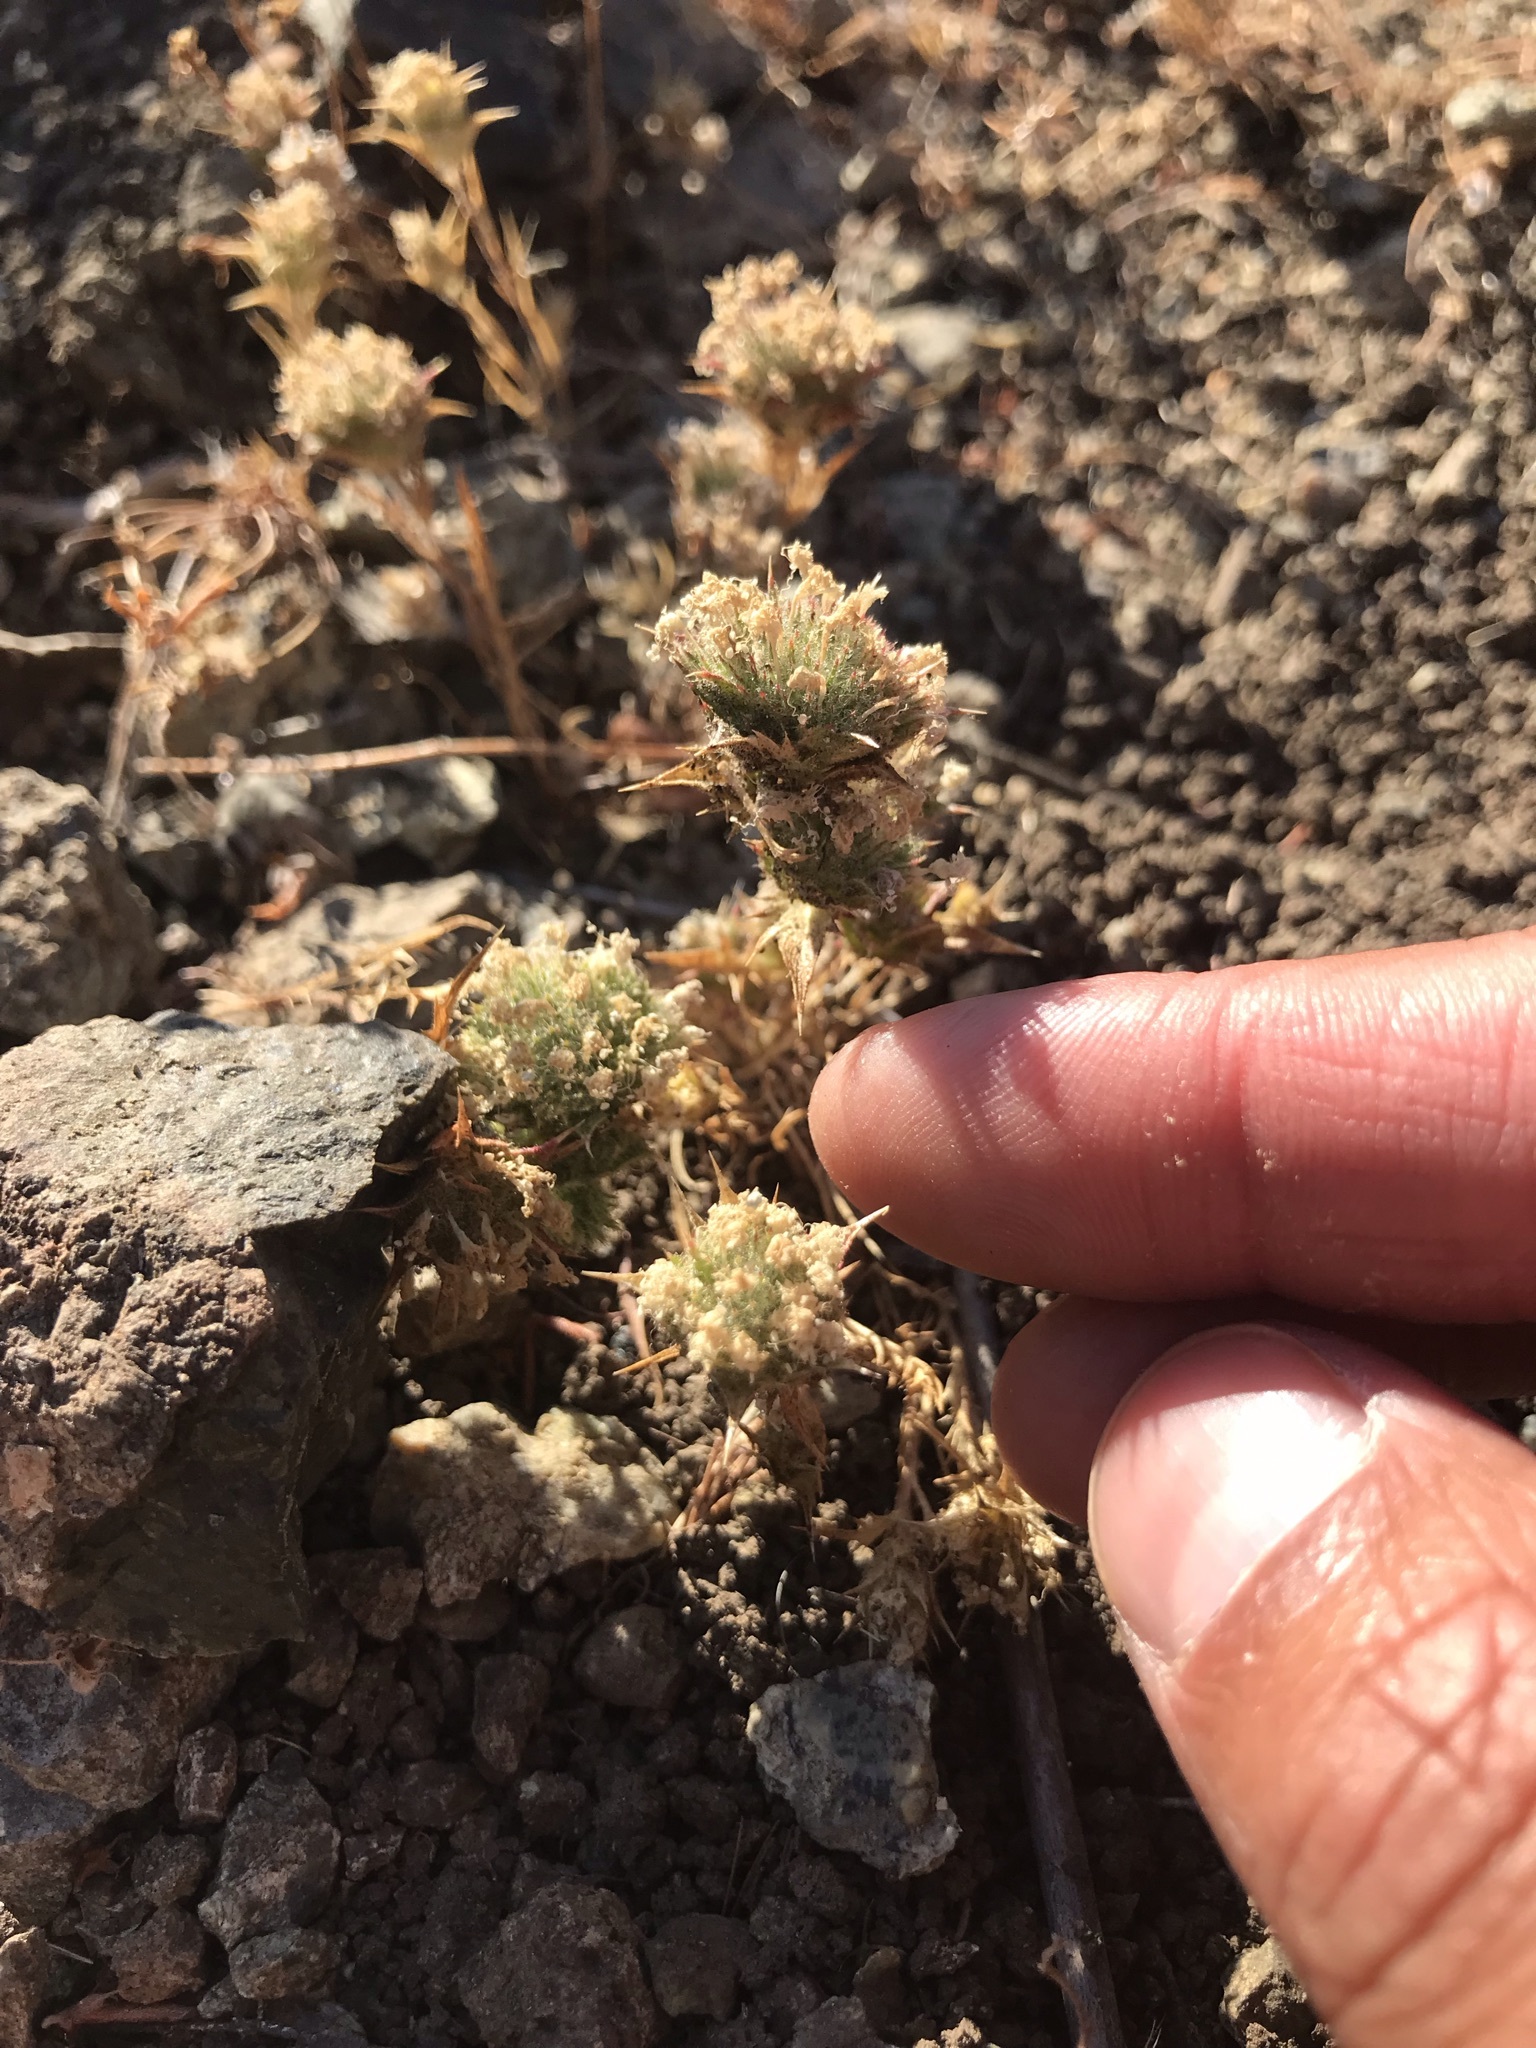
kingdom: Plantae
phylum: Tracheophyta
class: Magnoliopsida
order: Ericales
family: Polemoniaceae
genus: Navarretia
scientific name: Navarretia heterodoxa
